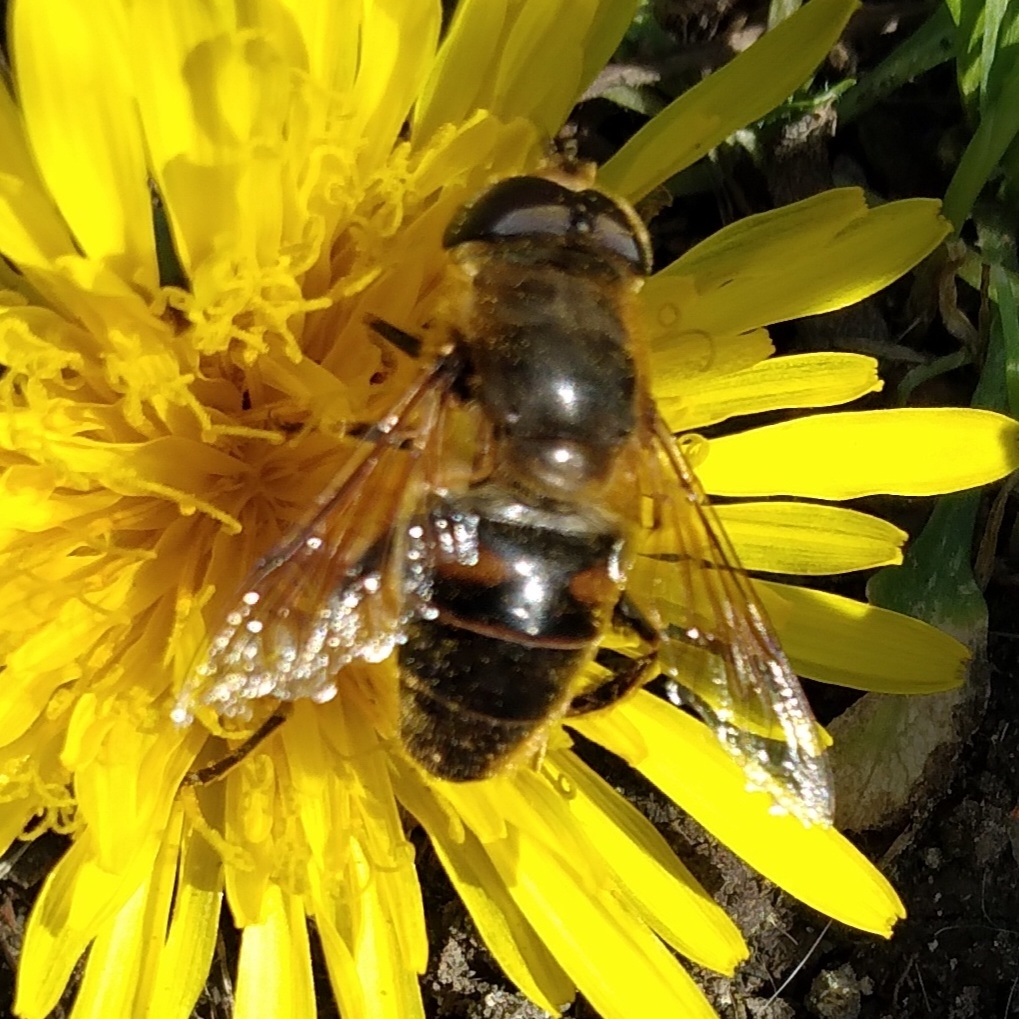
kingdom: Animalia
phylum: Arthropoda
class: Insecta
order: Diptera
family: Syrphidae
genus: Eristalis
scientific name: Eristalis tenax
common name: Drone fly
